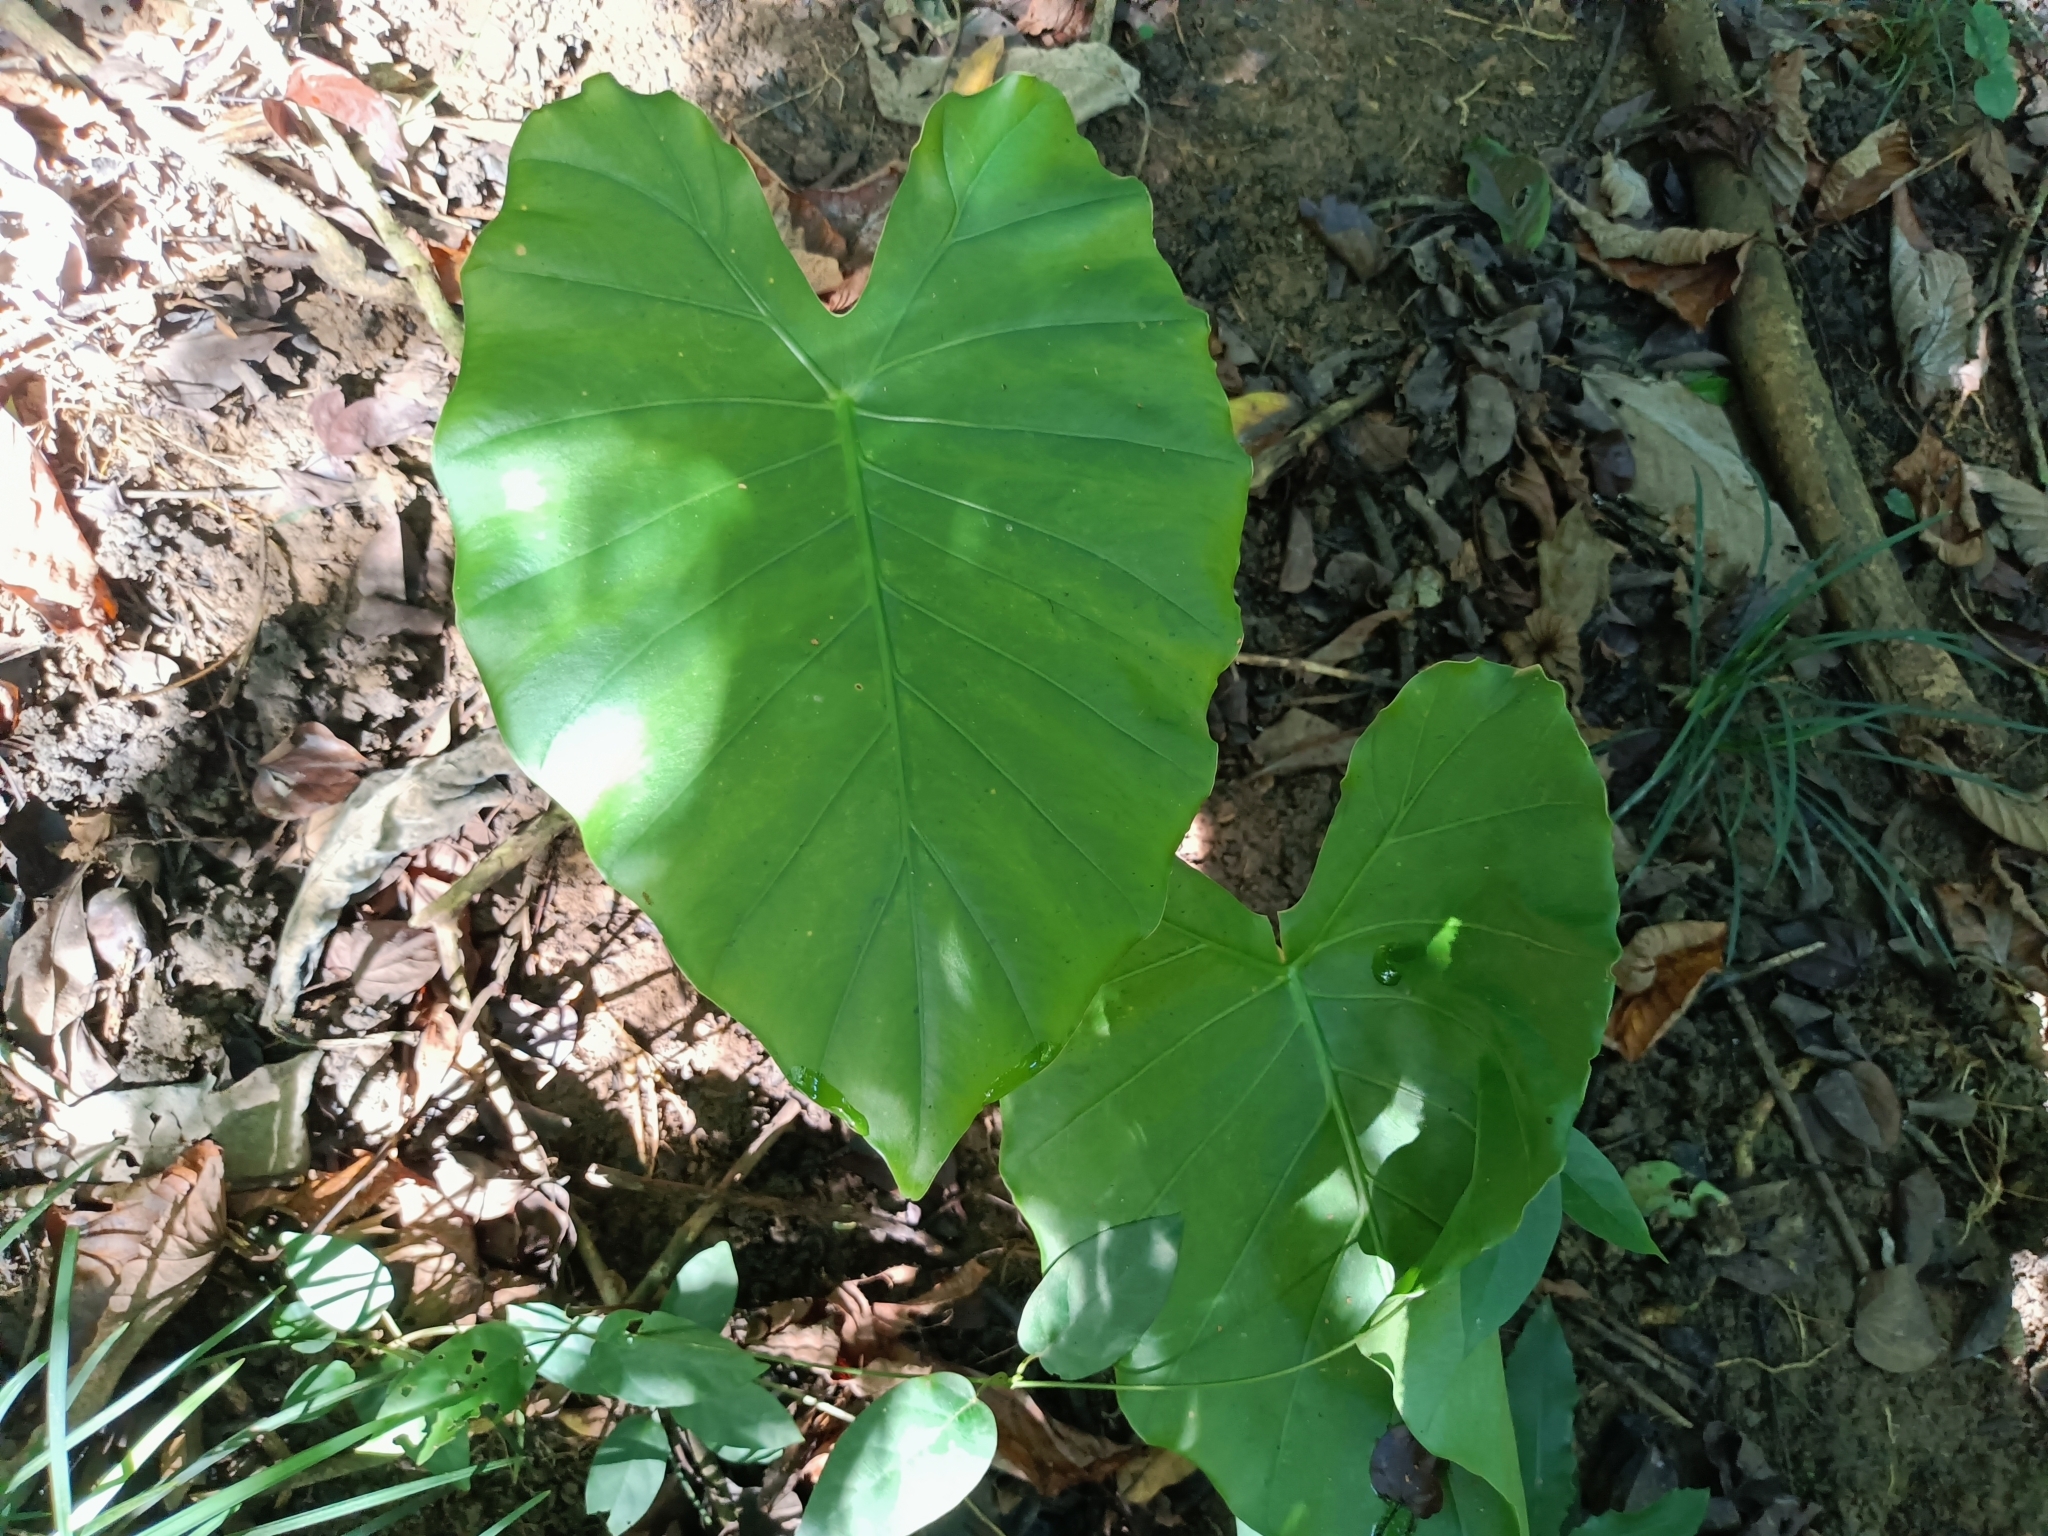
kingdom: Plantae
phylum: Tracheophyta
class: Liliopsida
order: Alismatales
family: Araceae
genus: Alocasia
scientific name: Alocasia odora
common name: Asian taro
